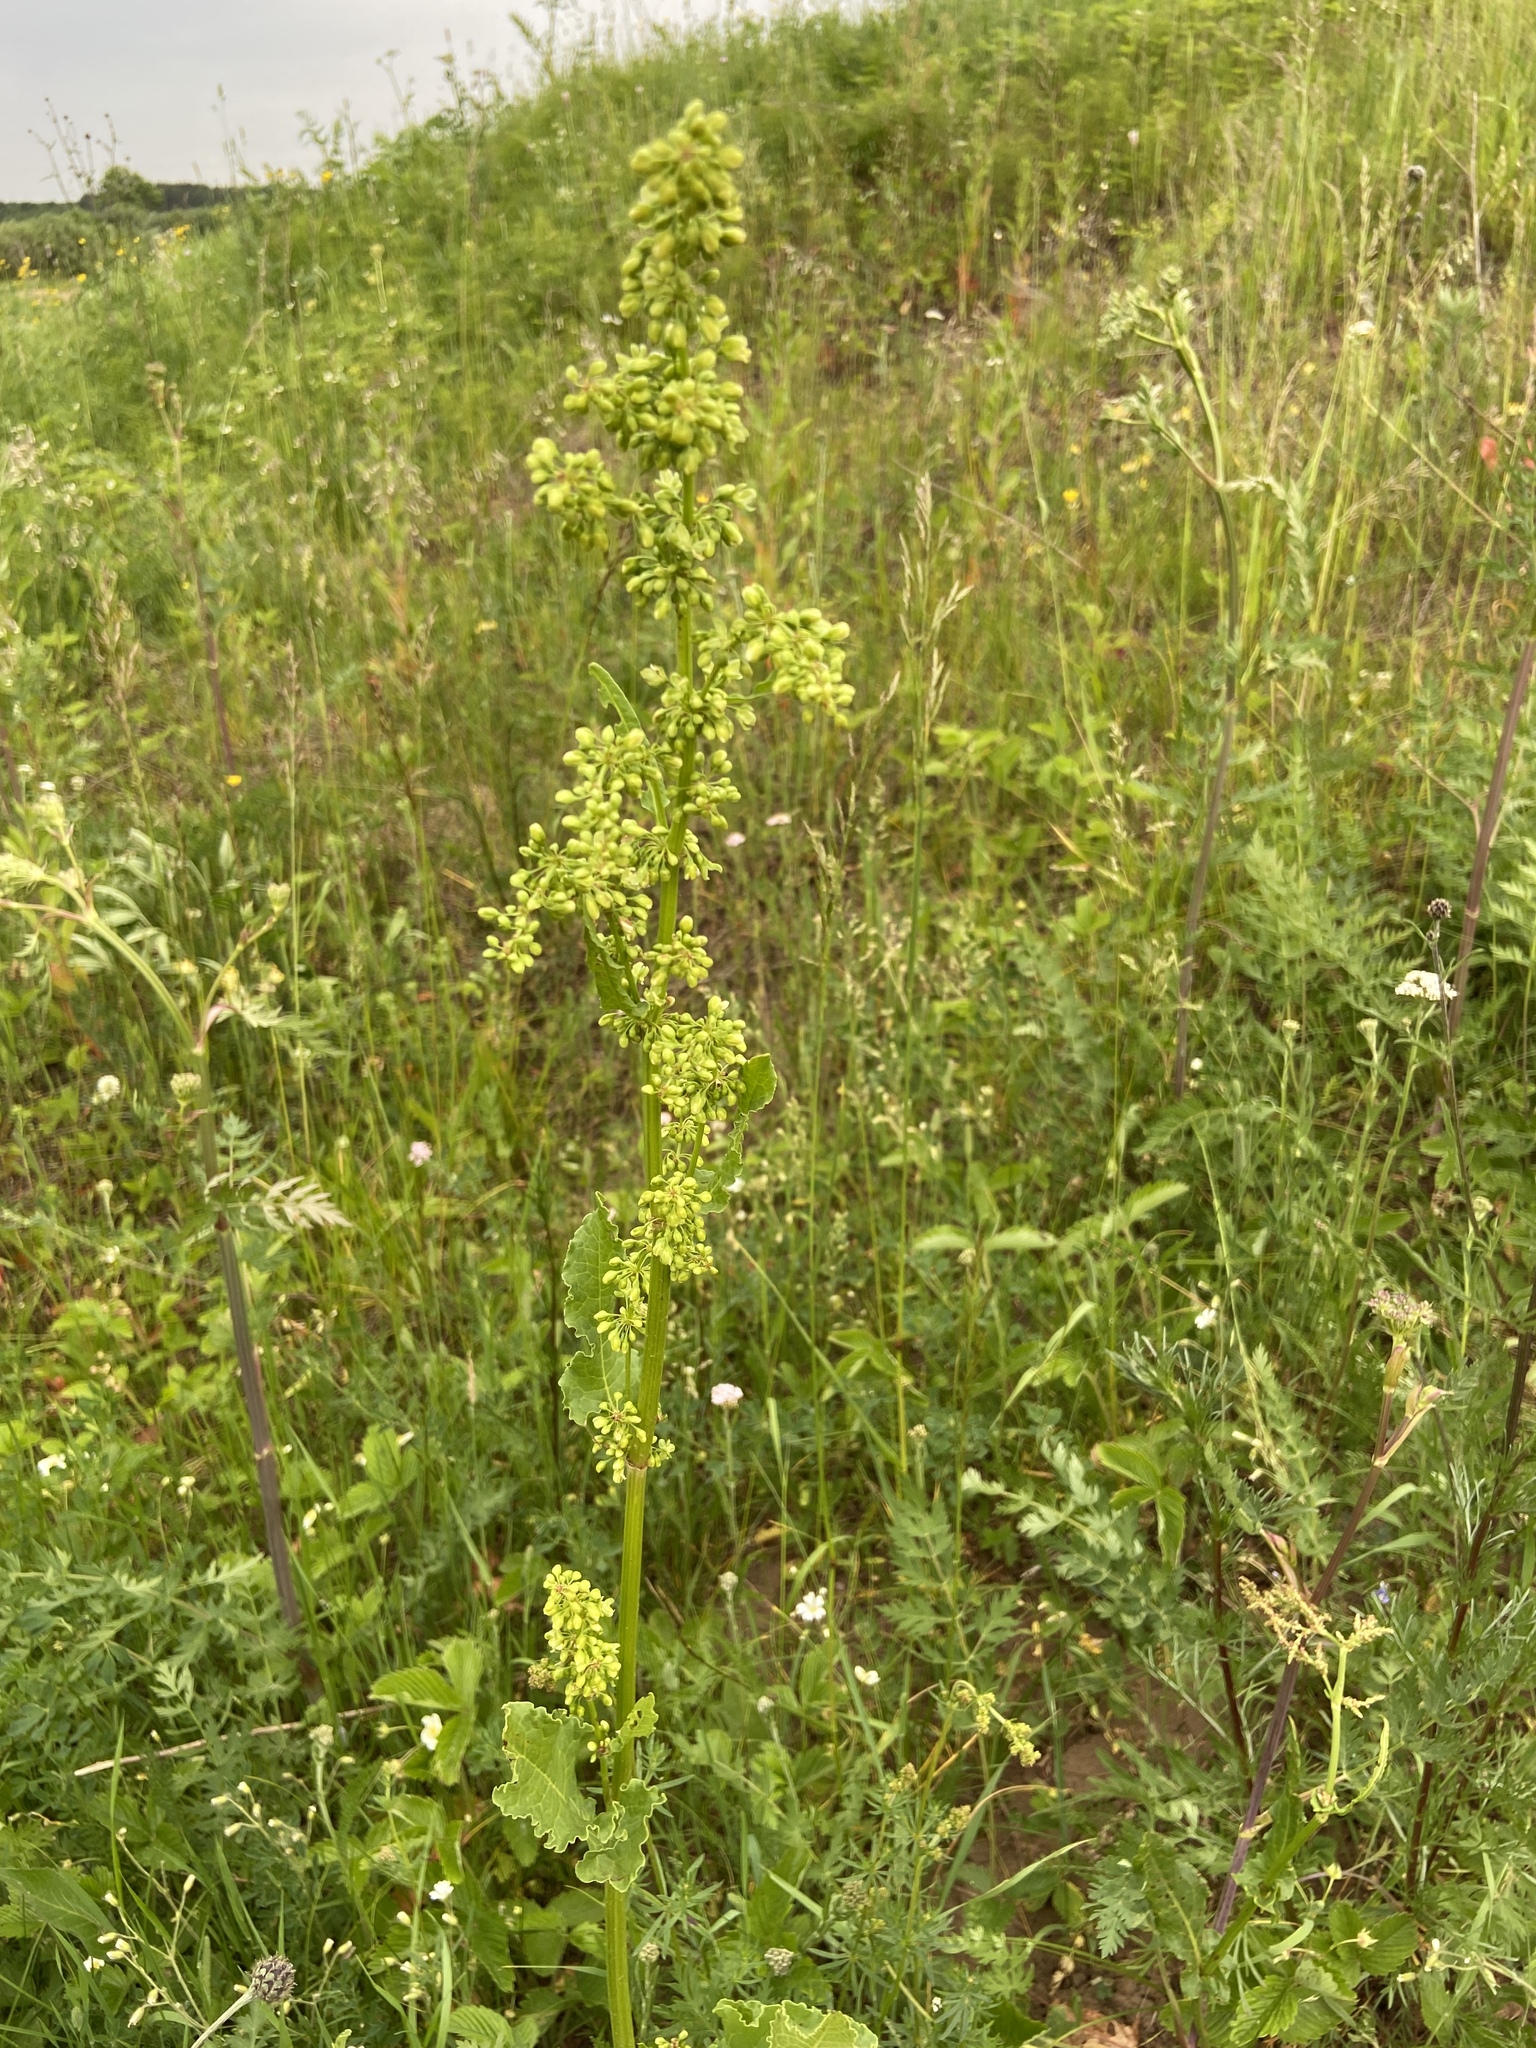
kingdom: Plantae
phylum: Tracheophyta
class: Magnoliopsida
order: Caryophyllales
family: Polygonaceae
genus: Rumex
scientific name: Rumex confertus
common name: Russian dock
